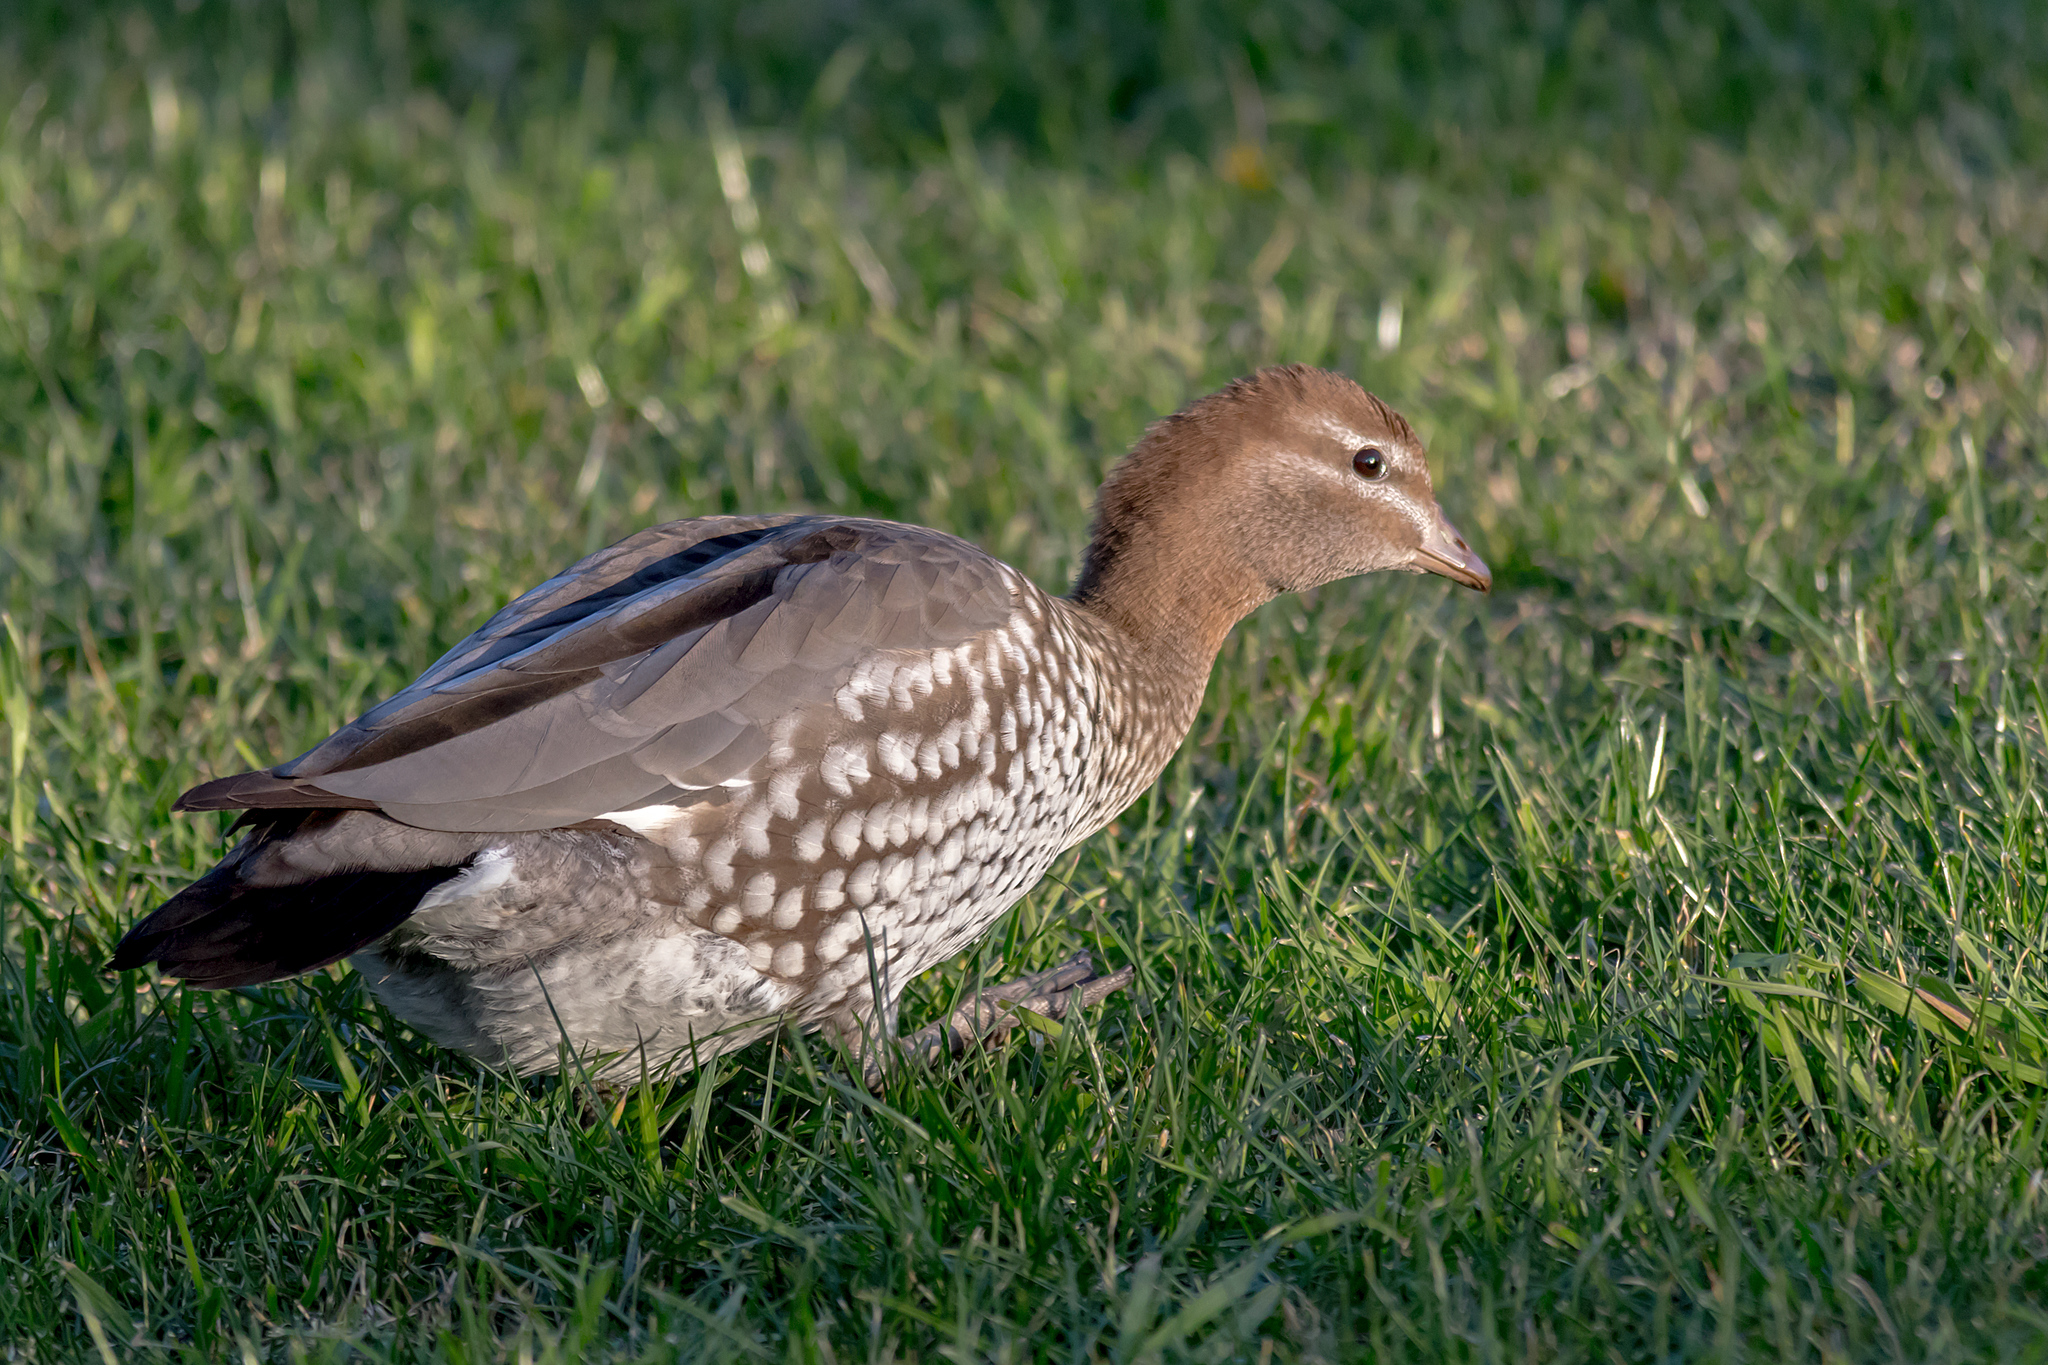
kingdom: Animalia
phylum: Chordata
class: Aves
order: Anseriformes
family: Anatidae
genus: Chenonetta
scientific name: Chenonetta jubata
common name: Maned duck
